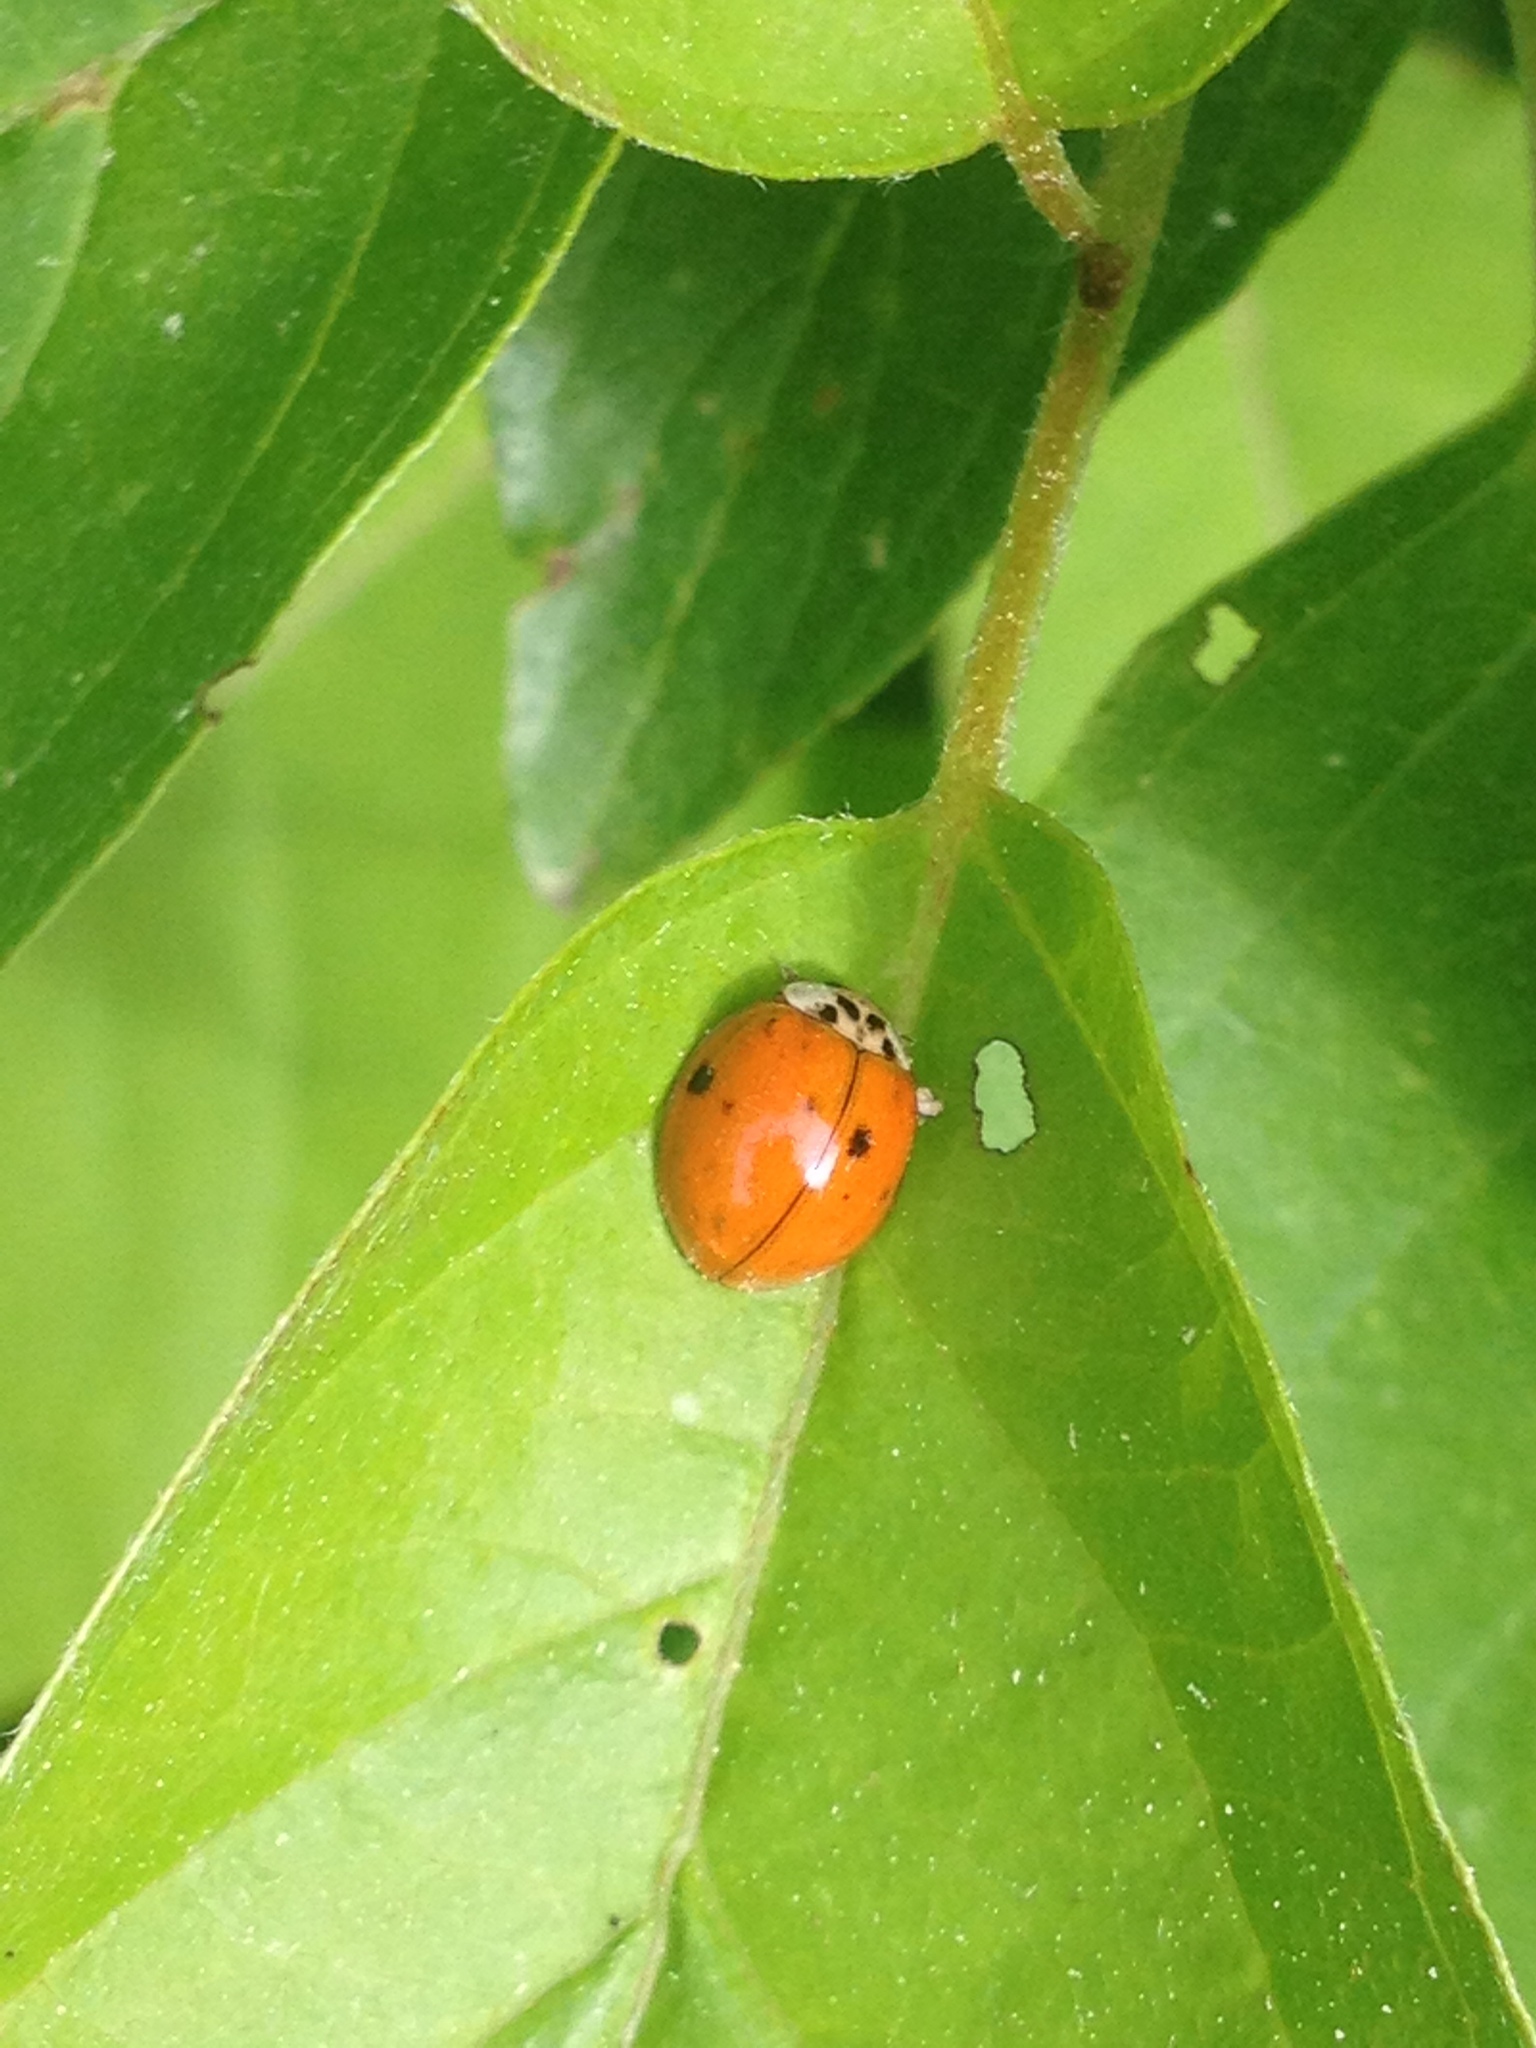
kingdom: Animalia
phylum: Arthropoda
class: Insecta
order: Coleoptera
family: Coccinellidae
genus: Harmonia
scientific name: Harmonia axyridis
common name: Harlequin ladybird
